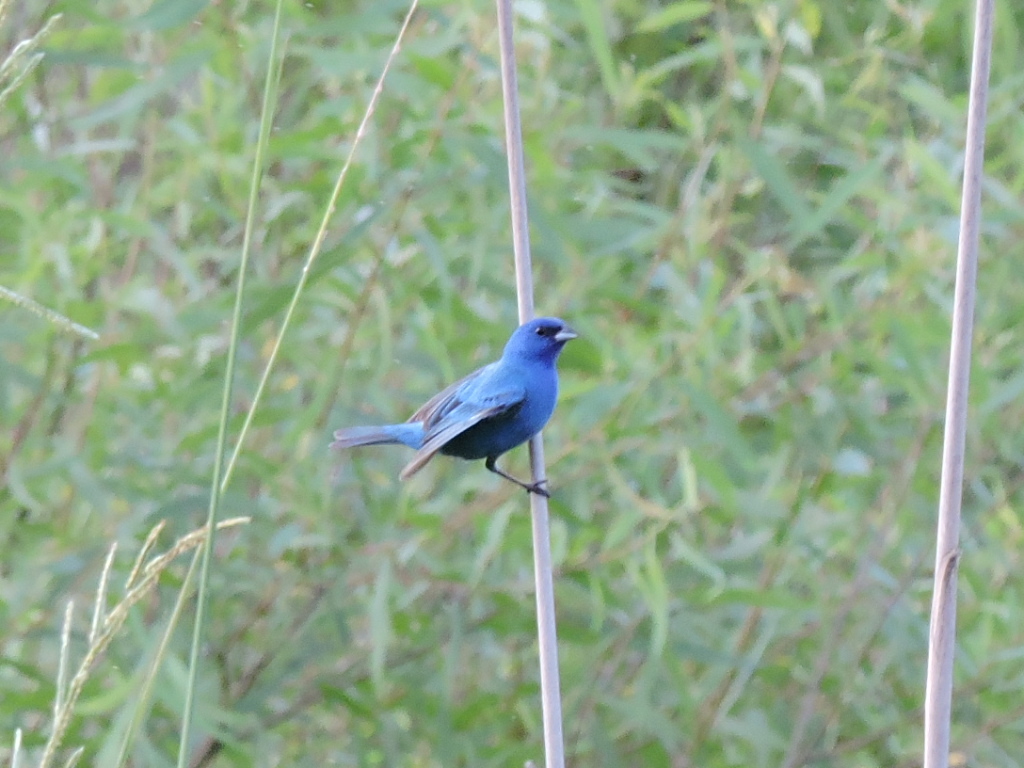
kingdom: Animalia
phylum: Chordata
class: Aves
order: Passeriformes
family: Cardinalidae
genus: Passerina
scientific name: Passerina cyanea
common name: Indigo bunting
